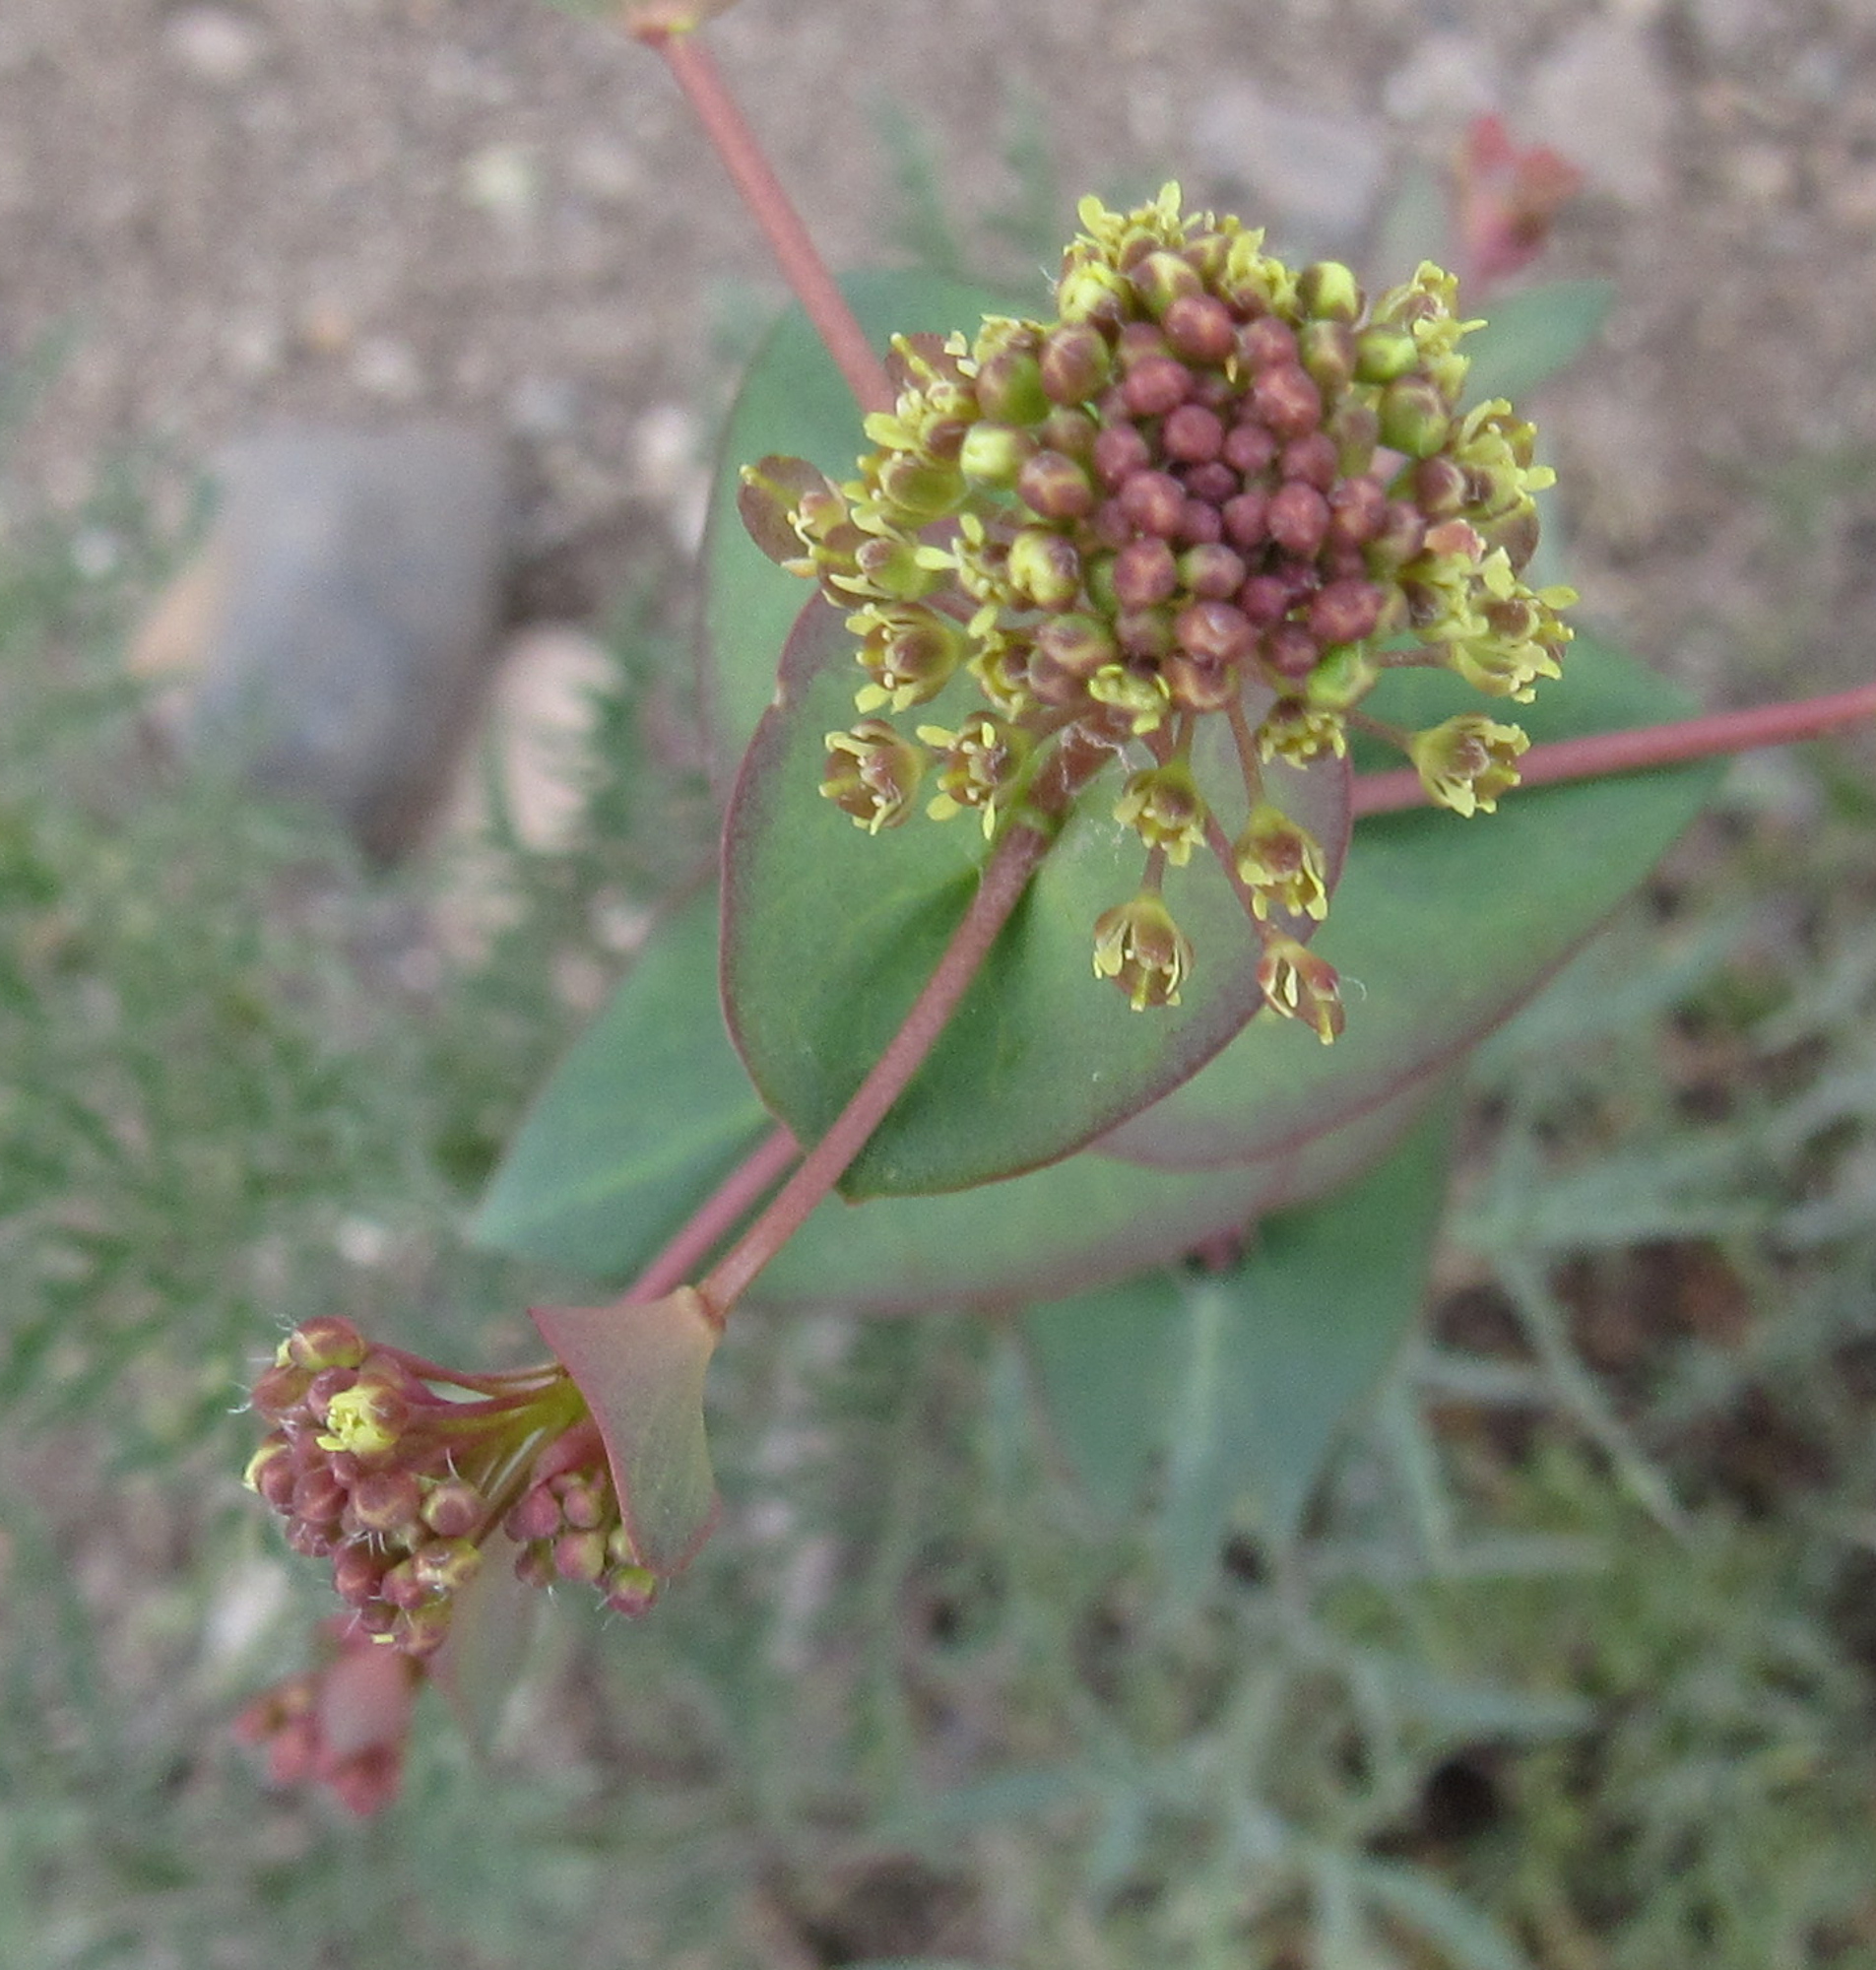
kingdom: Plantae
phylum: Tracheophyta
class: Magnoliopsida
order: Brassicales
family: Brassicaceae
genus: Lepidium
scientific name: Lepidium perfoliatum
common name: Perfoliate pepperwort
